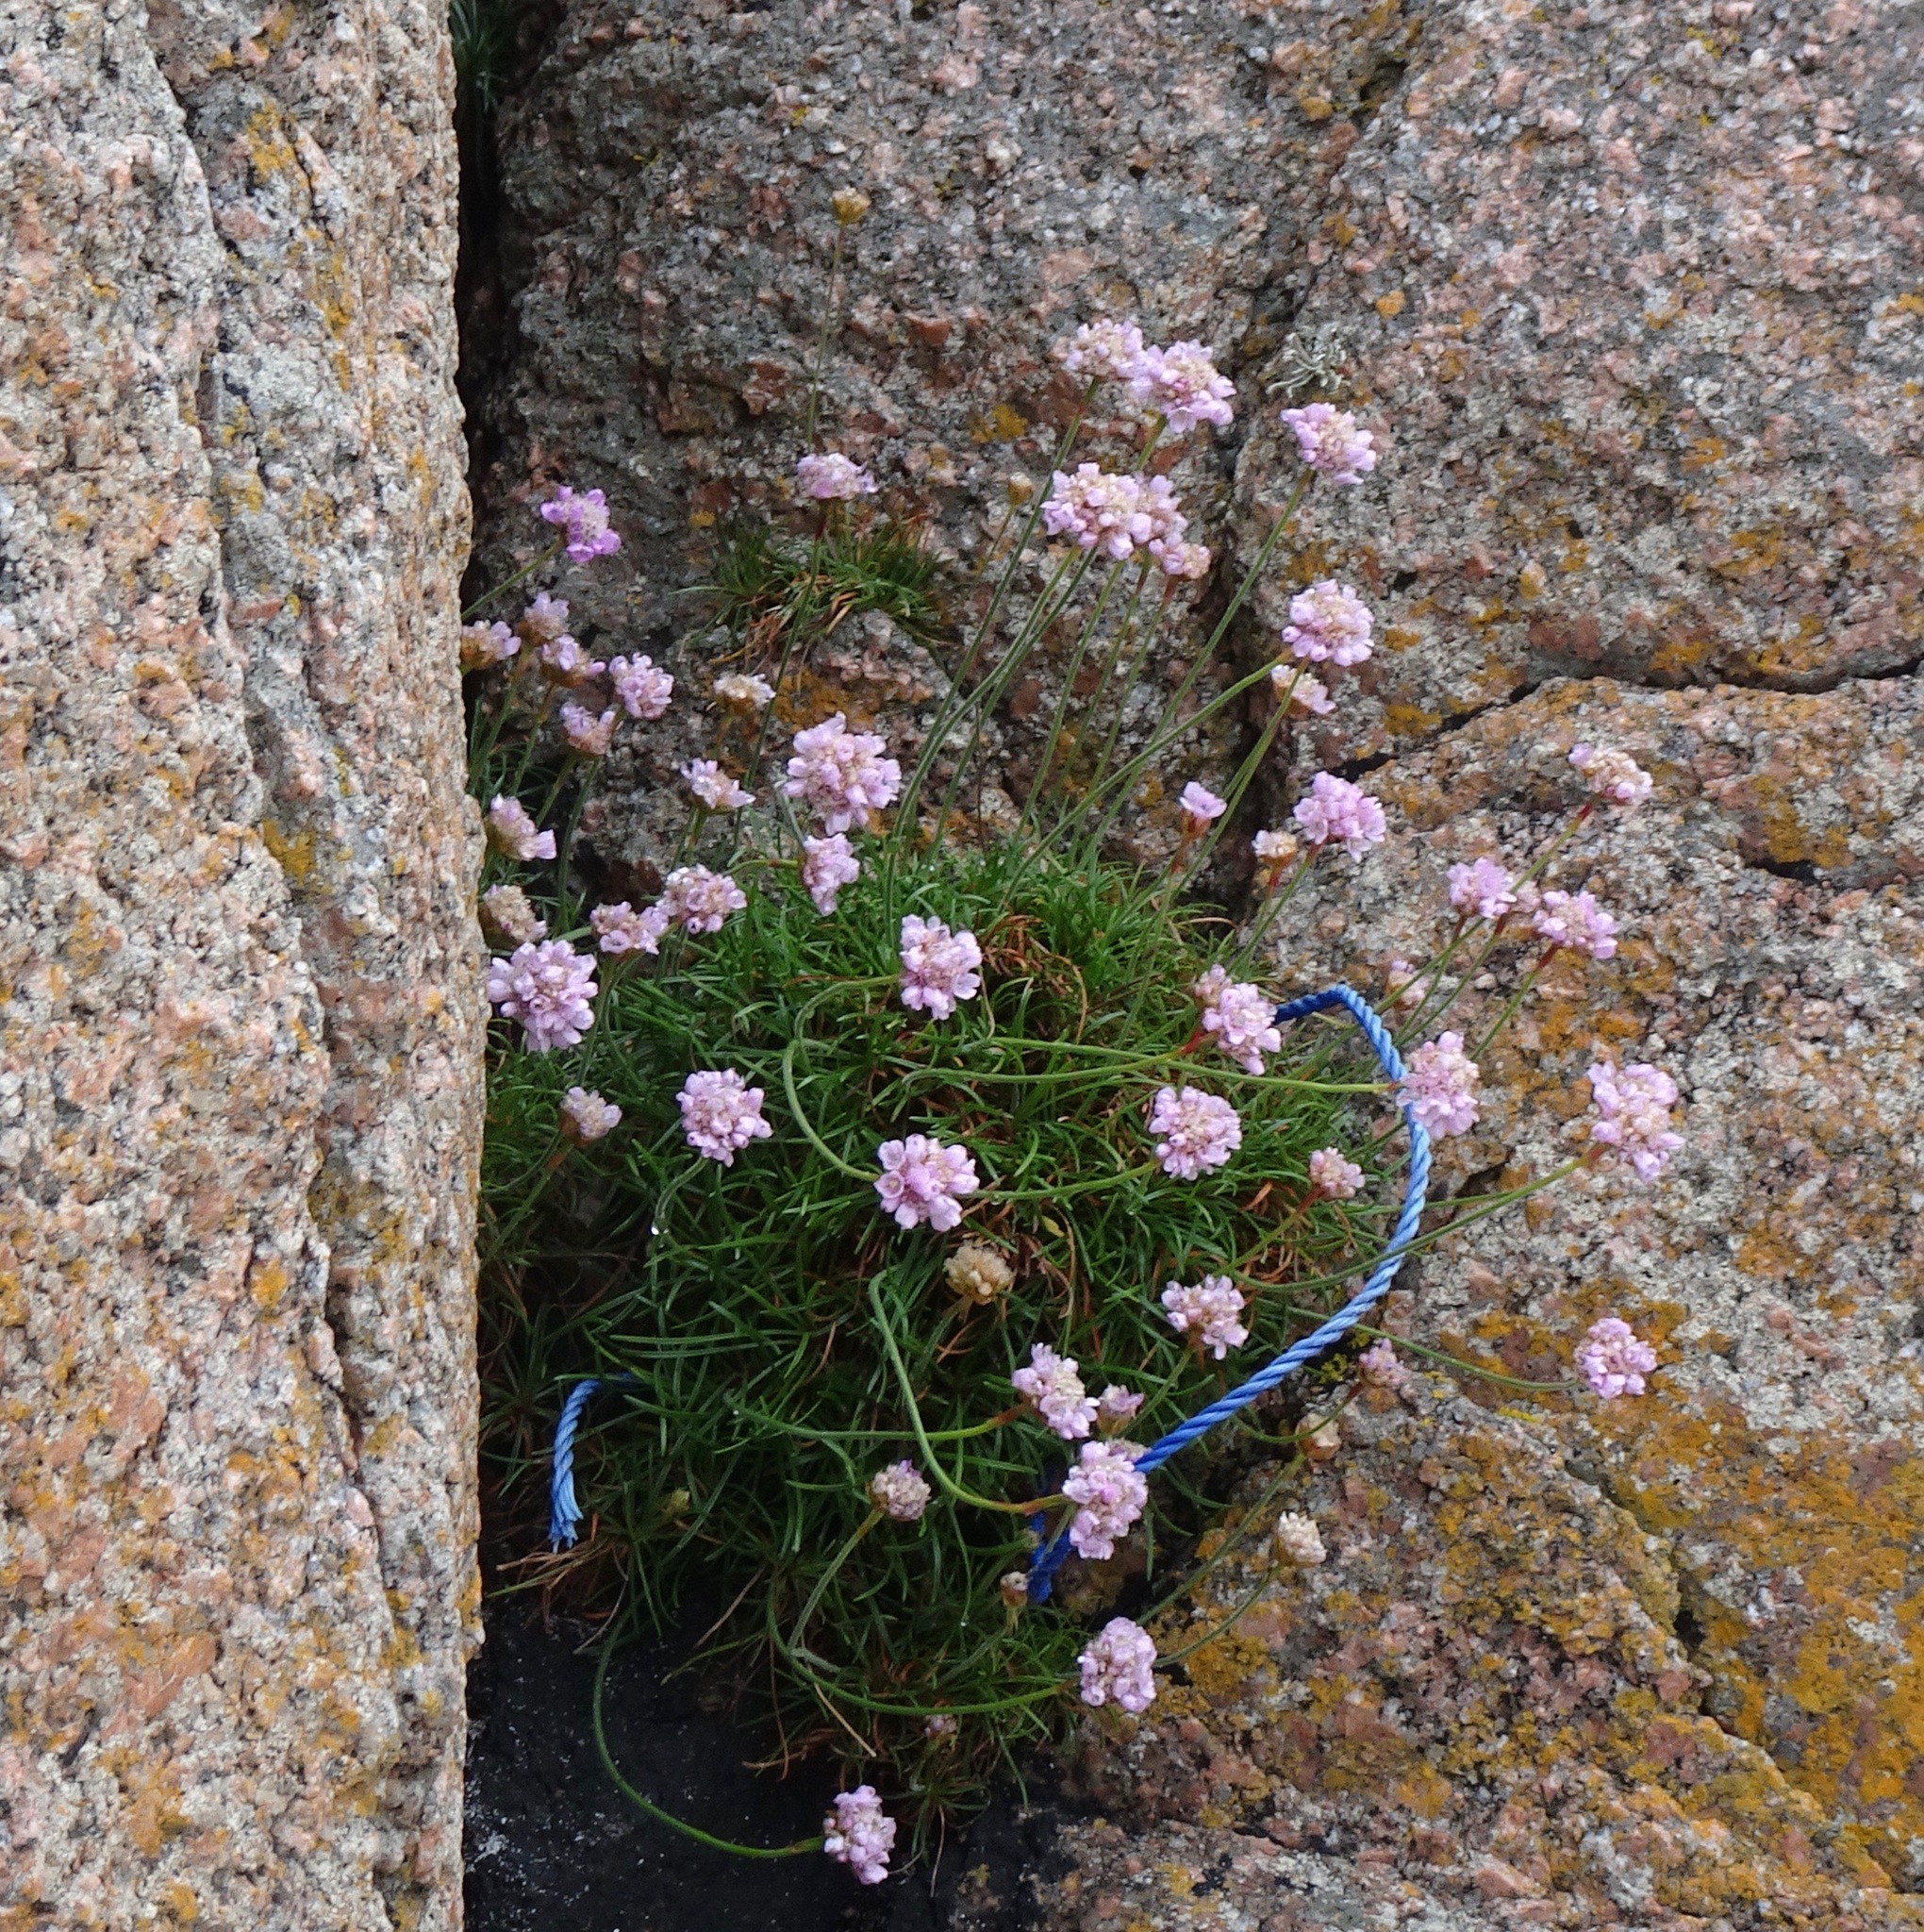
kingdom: Plantae
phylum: Tracheophyta
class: Magnoliopsida
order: Caryophyllales
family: Plumbaginaceae
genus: Armeria
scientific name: Armeria maritima
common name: Thrift
